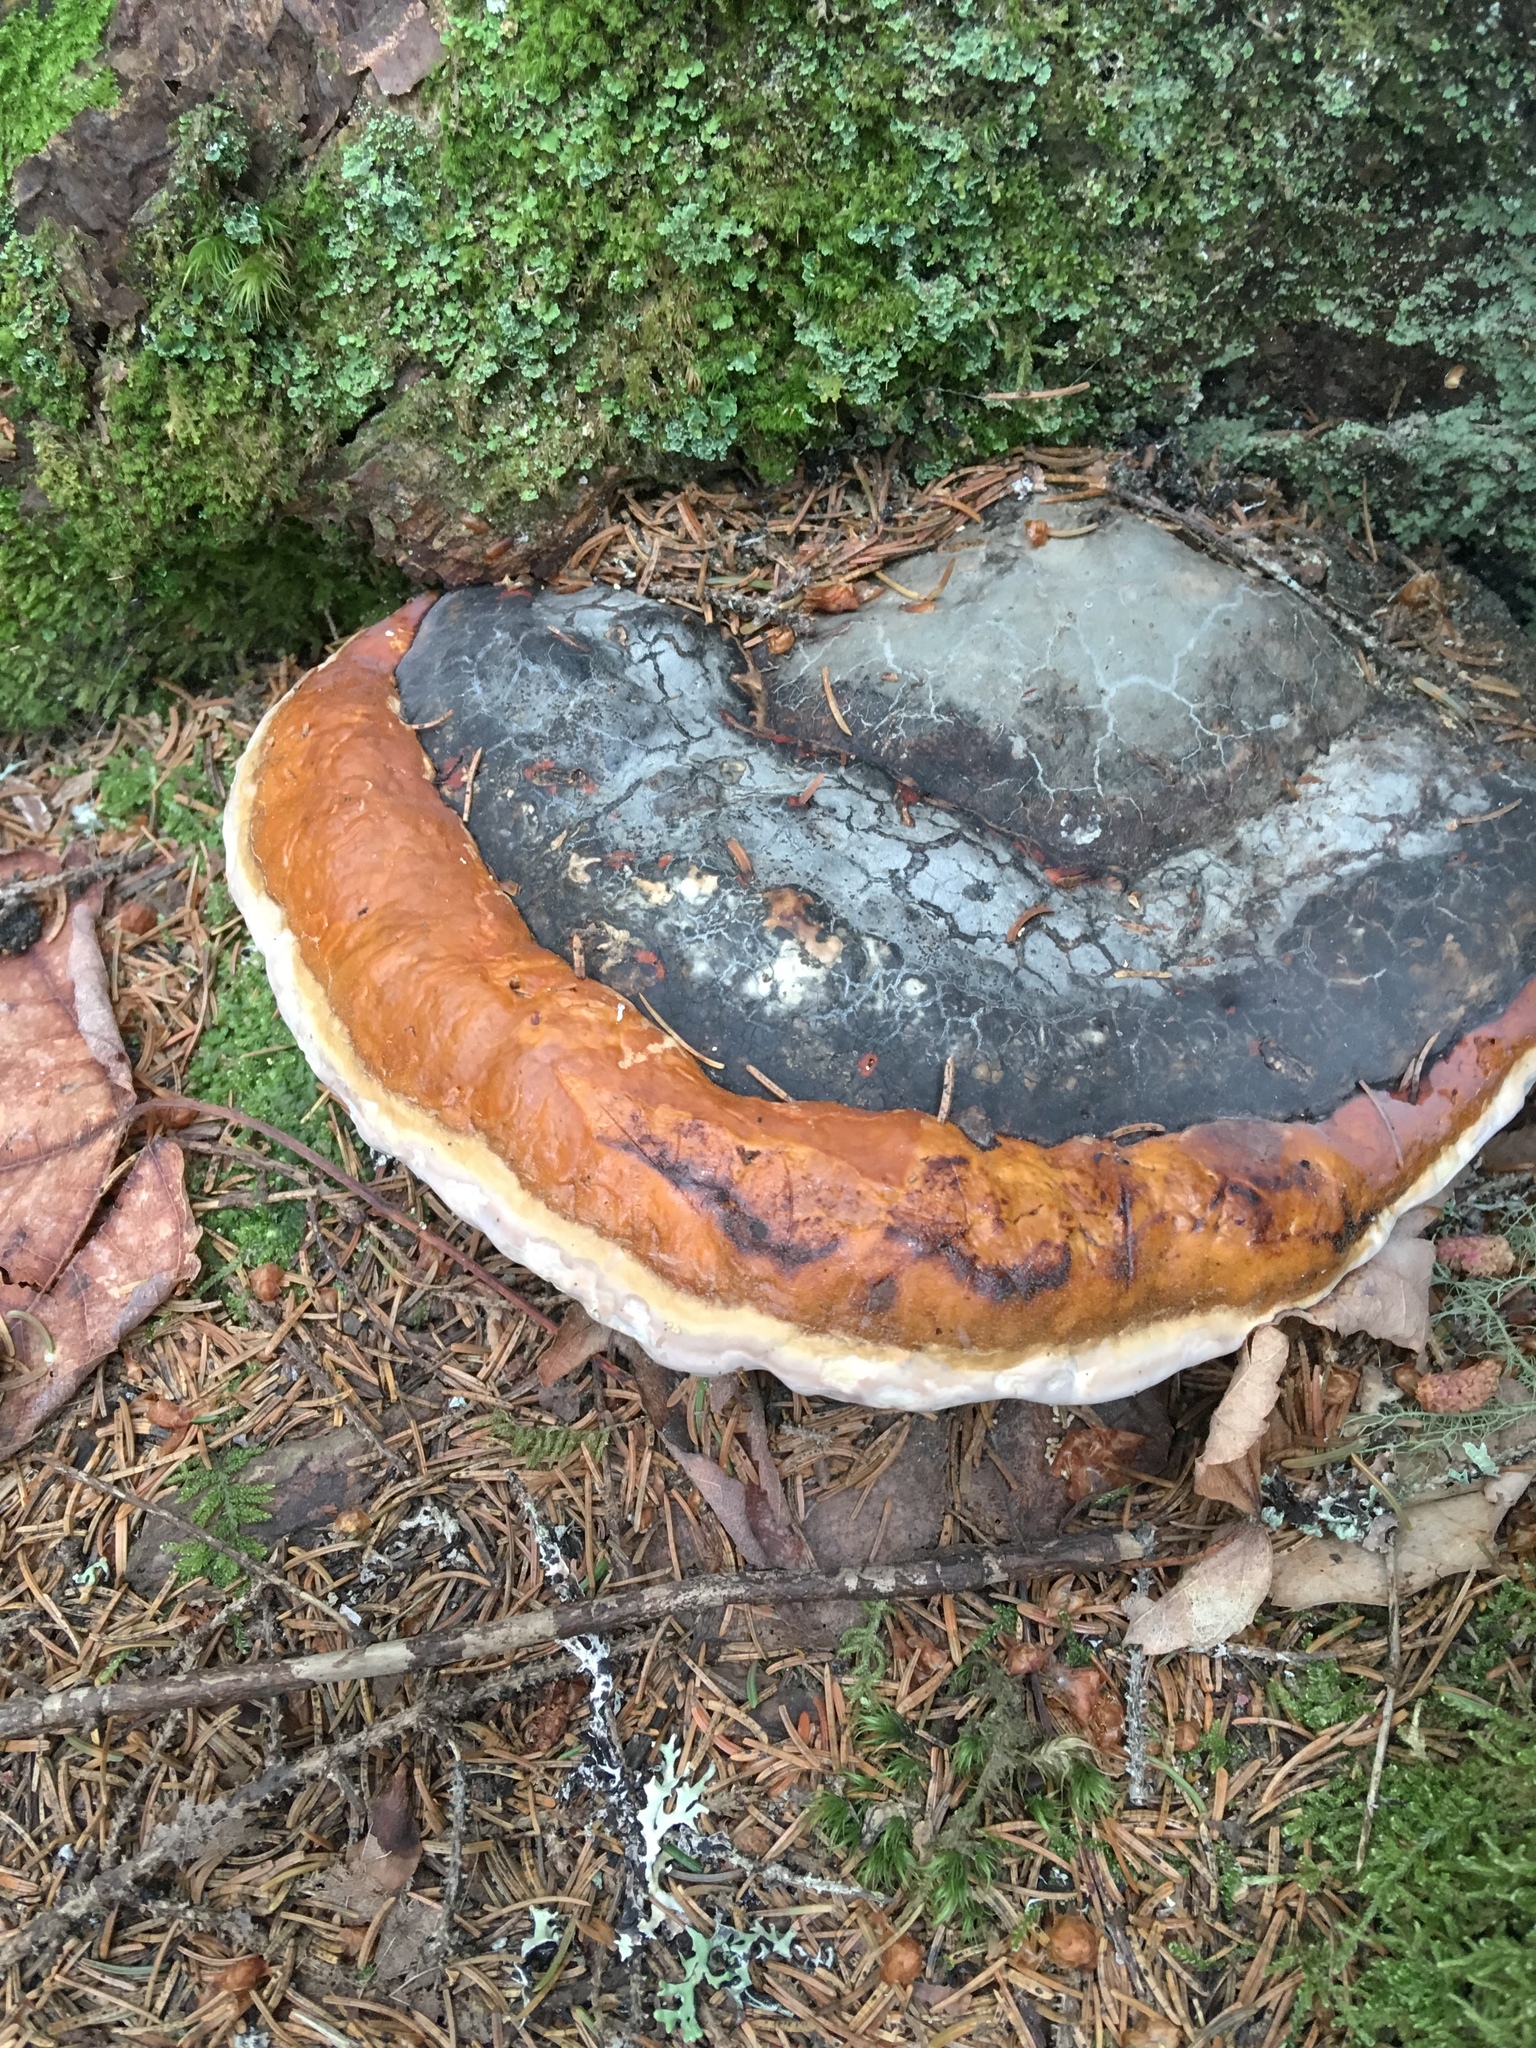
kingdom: Fungi
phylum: Basidiomycota
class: Agaricomycetes
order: Polyporales
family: Fomitopsidaceae
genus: Fomitopsis
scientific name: Fomitopsis mounceae
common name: Northern red belt
